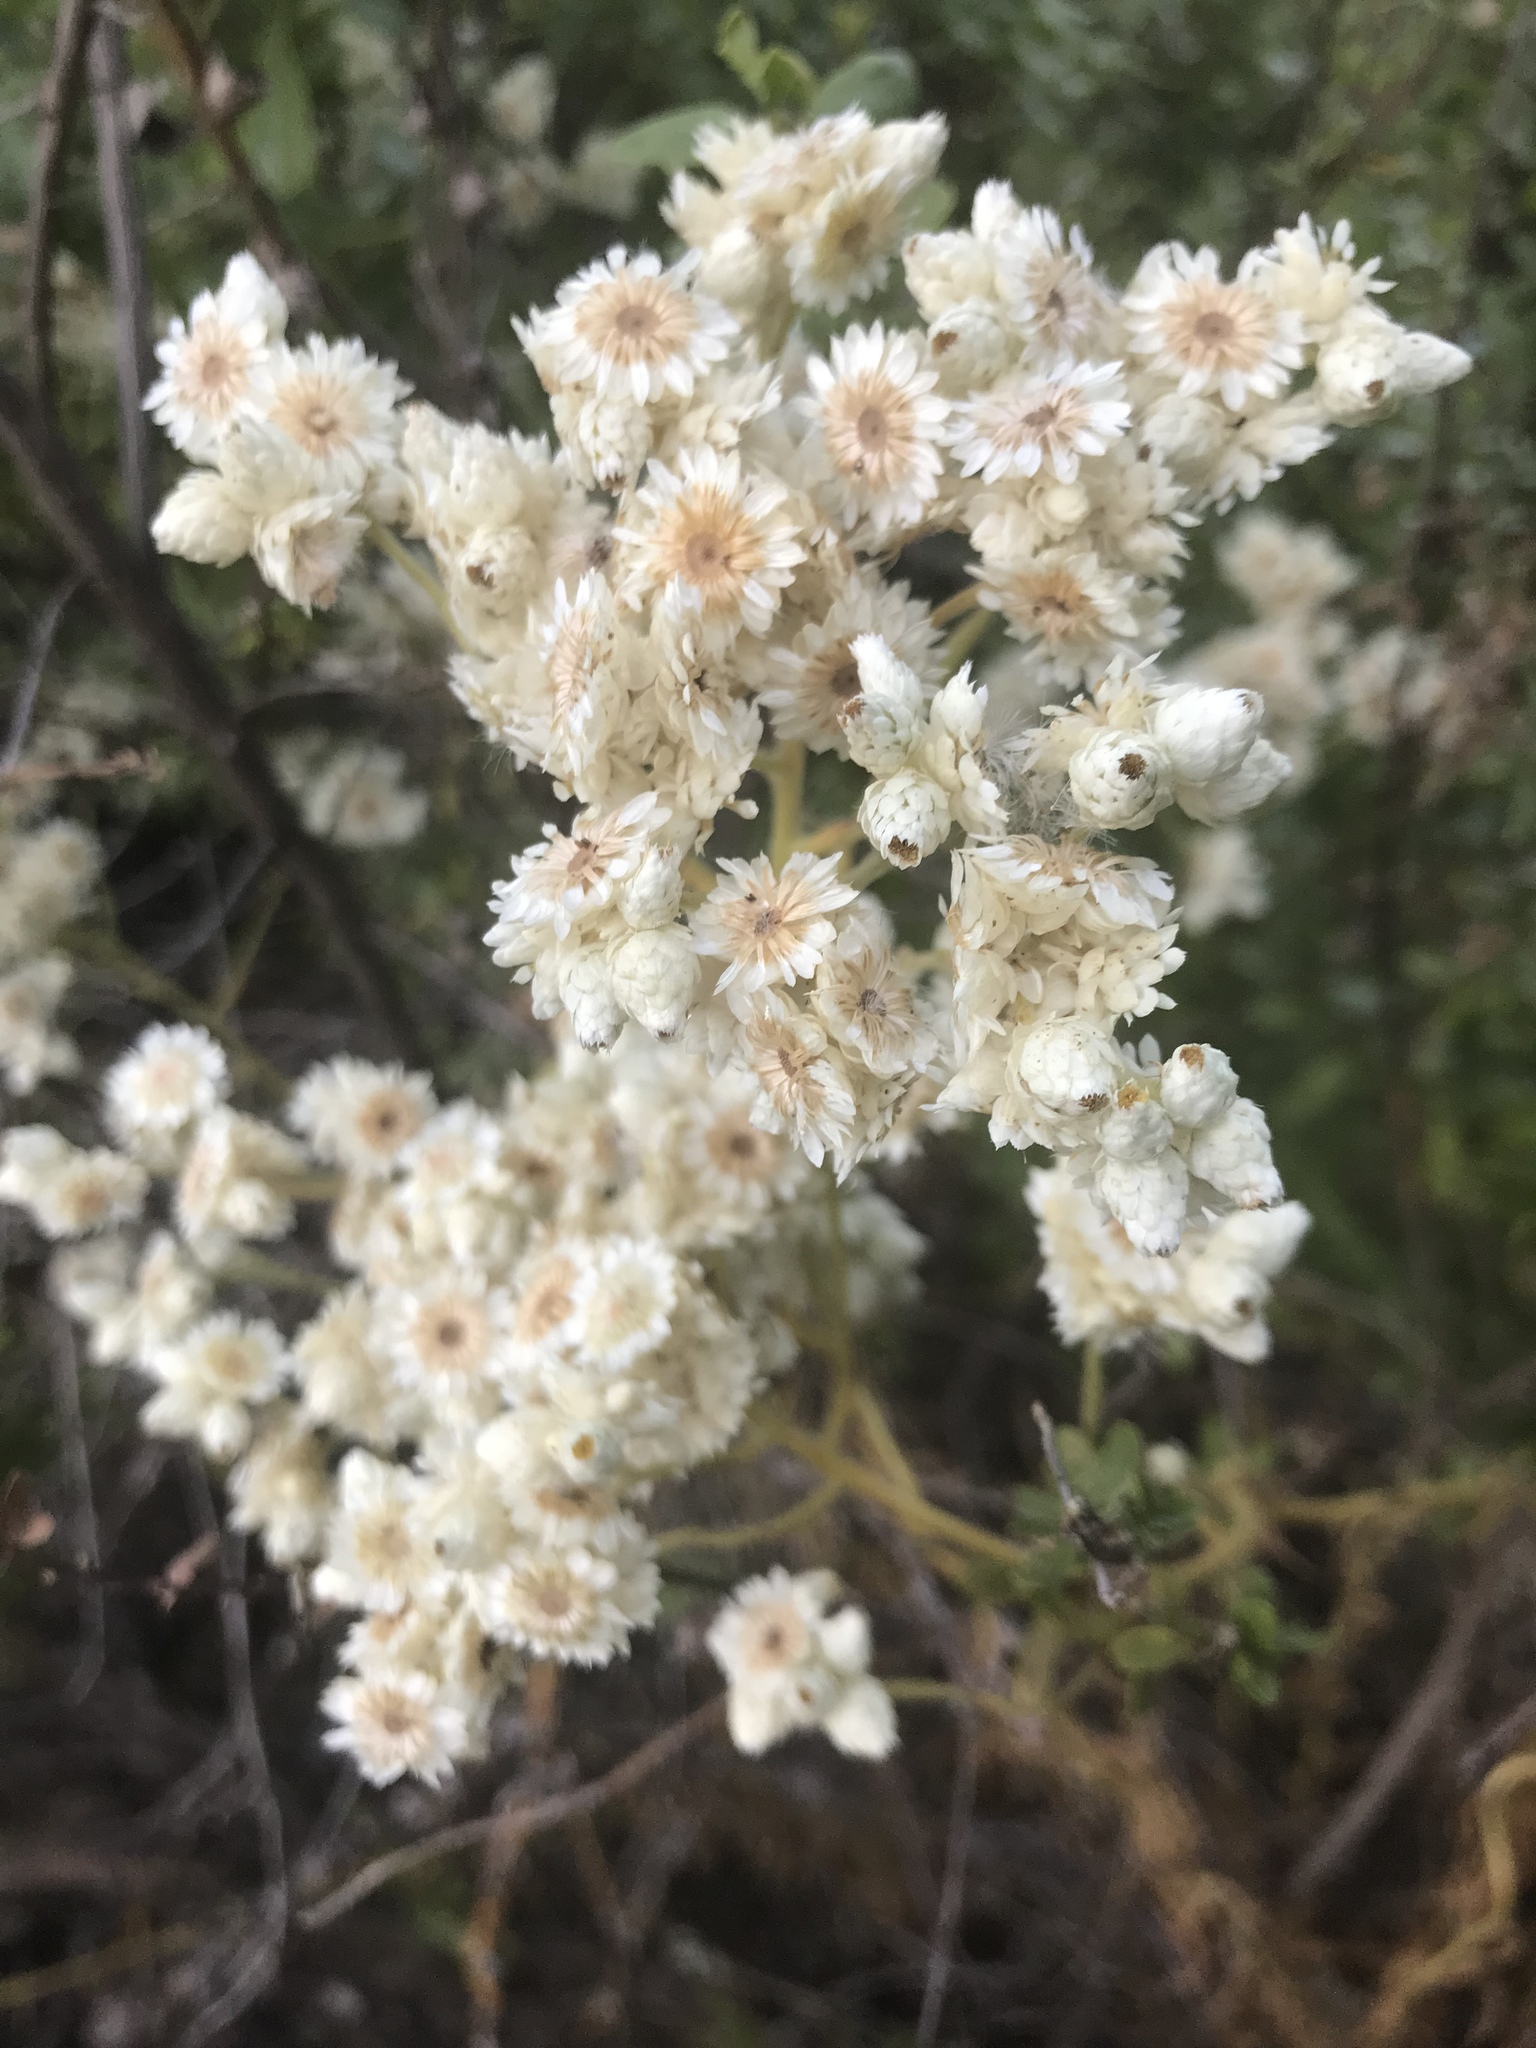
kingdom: Plantae
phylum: Tracheophyta
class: Magnoliopsida
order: Asterales
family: Asteraceae
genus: Pseudognaphalium
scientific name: Pseudognaphalium californicum
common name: California rabbit-tobacco
